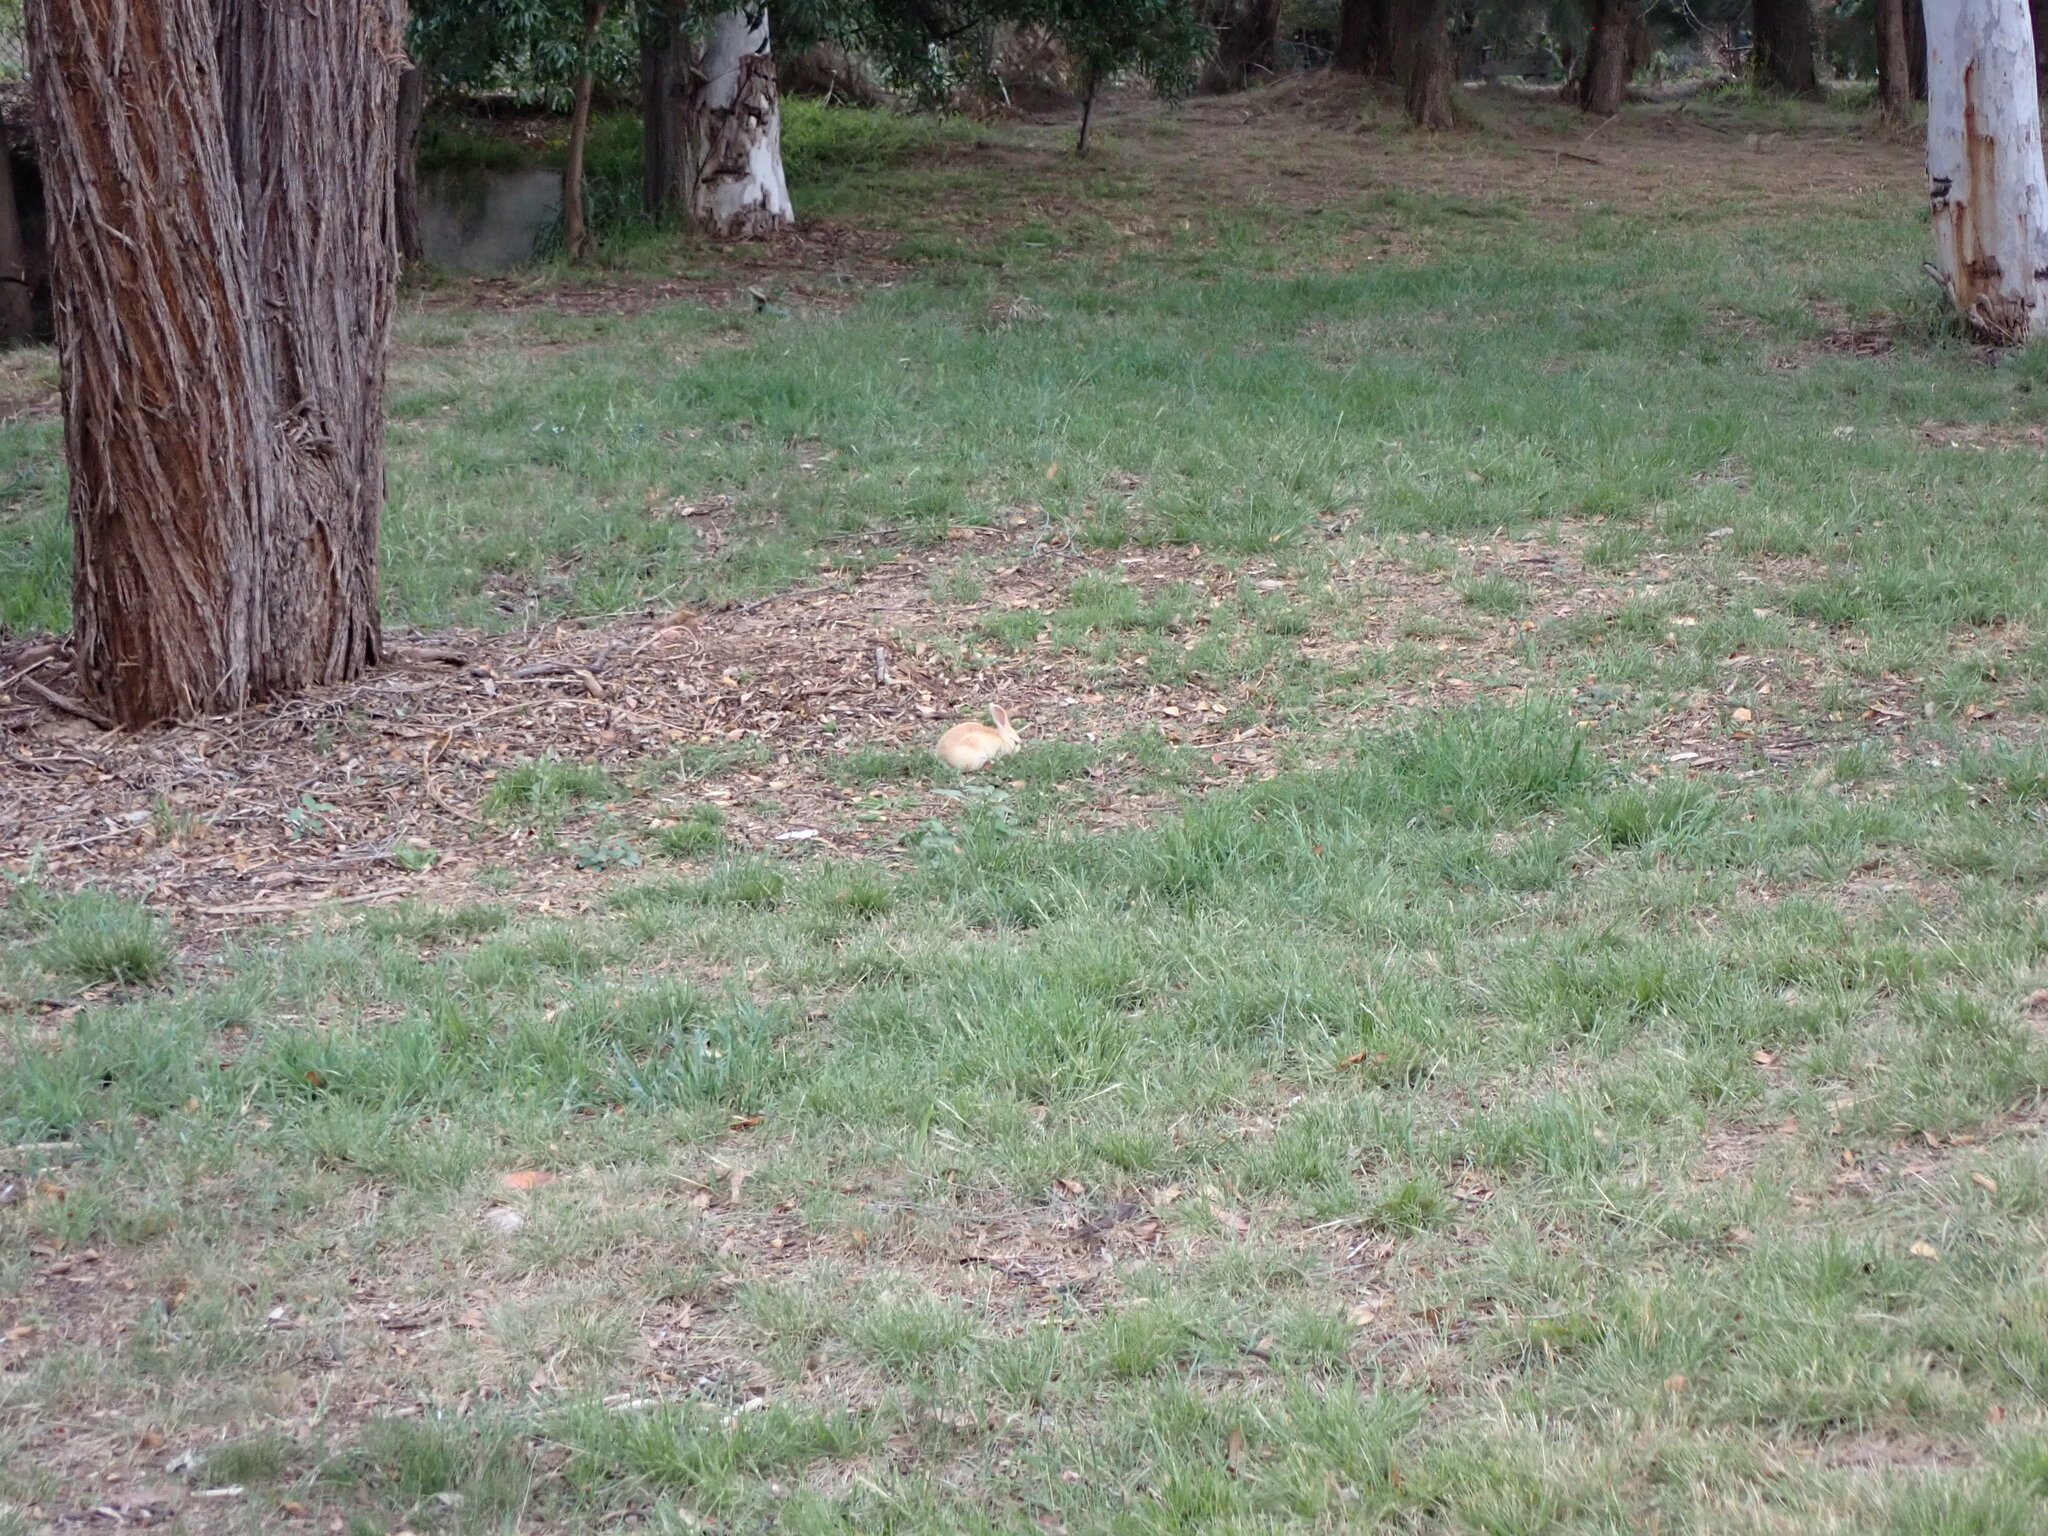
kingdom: Animalia
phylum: Chordata
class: Mammalia
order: Lagomorpha
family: Leporidae
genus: Oryctolagus
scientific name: Oryctolagus cuniculus
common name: European rabbit
